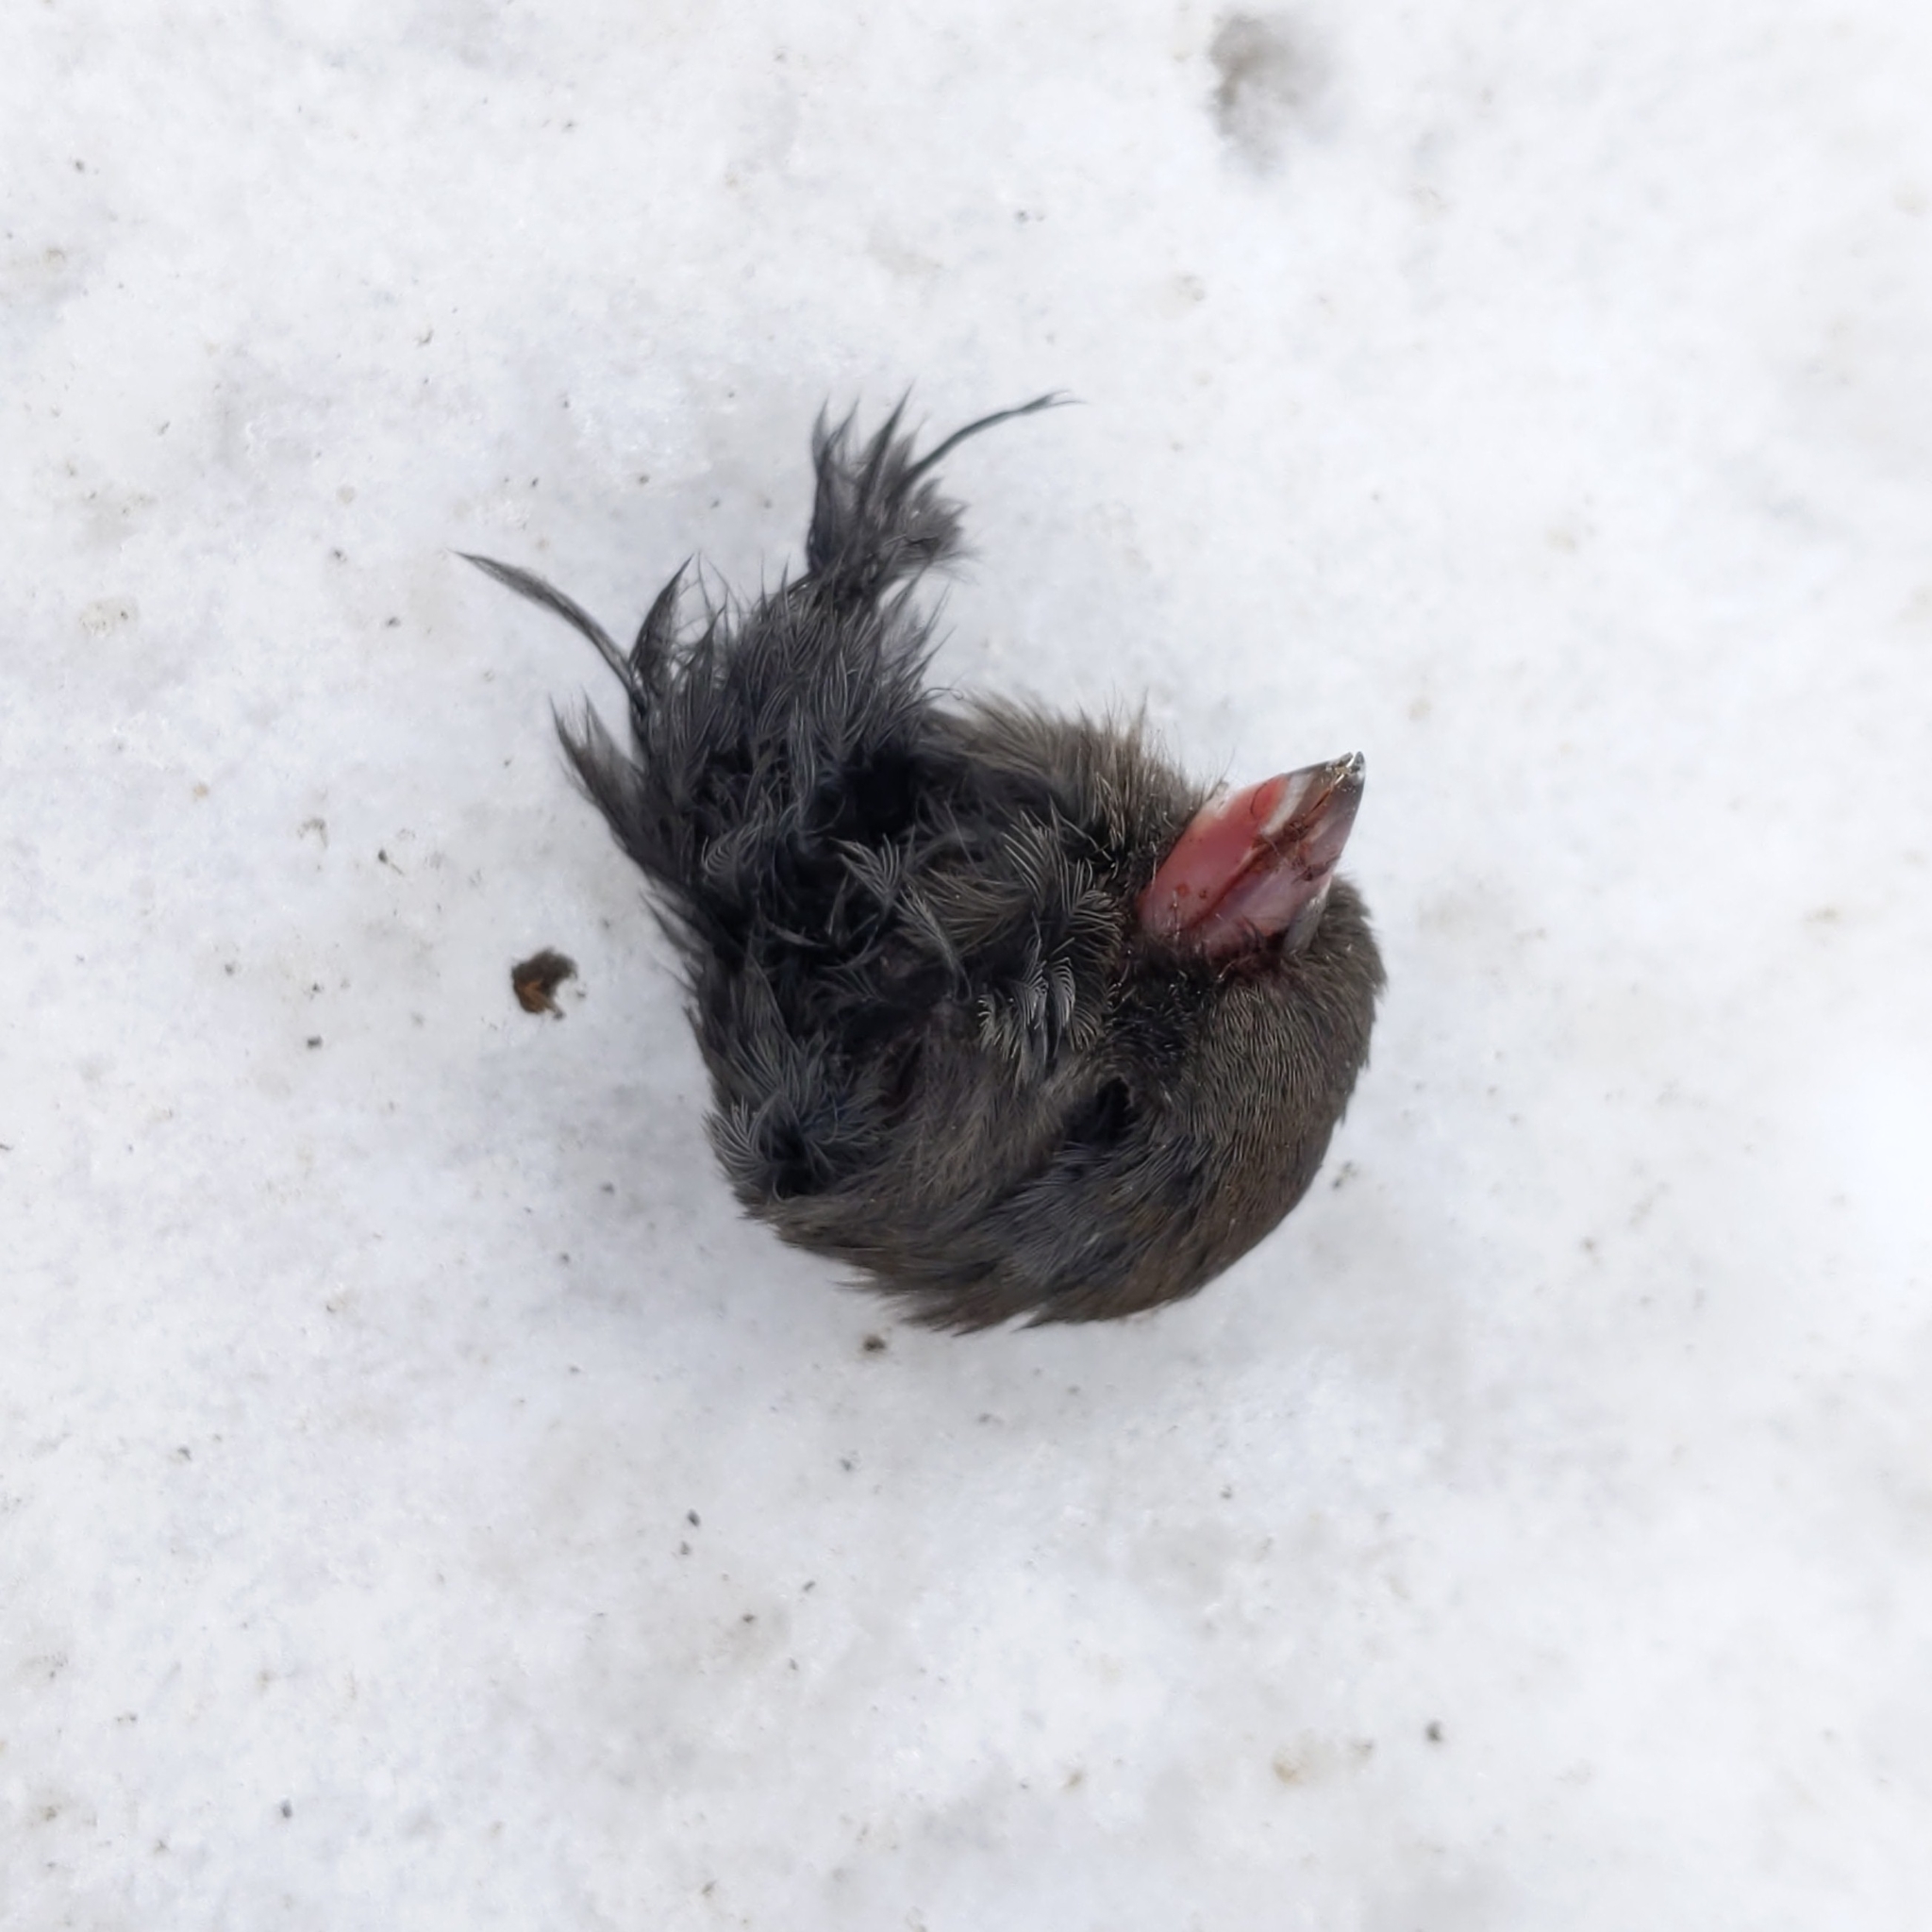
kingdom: Animalia
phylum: Chordata
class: Aves
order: Passeriformes
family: Passerellidae
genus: Junco
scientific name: Junco hyemalis
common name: Dark-eyed junco
